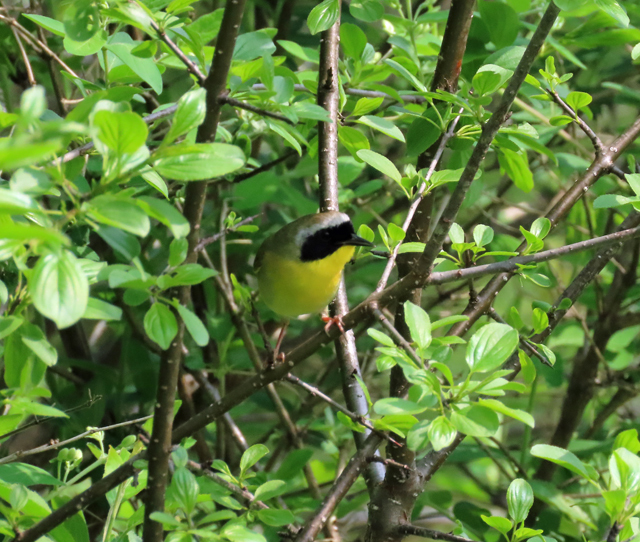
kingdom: Animalia
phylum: Chordata
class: Aves
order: Passeriformes
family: Parulidae
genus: Geothlypis
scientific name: Geothlypis trichas
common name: Common yellowthroat
